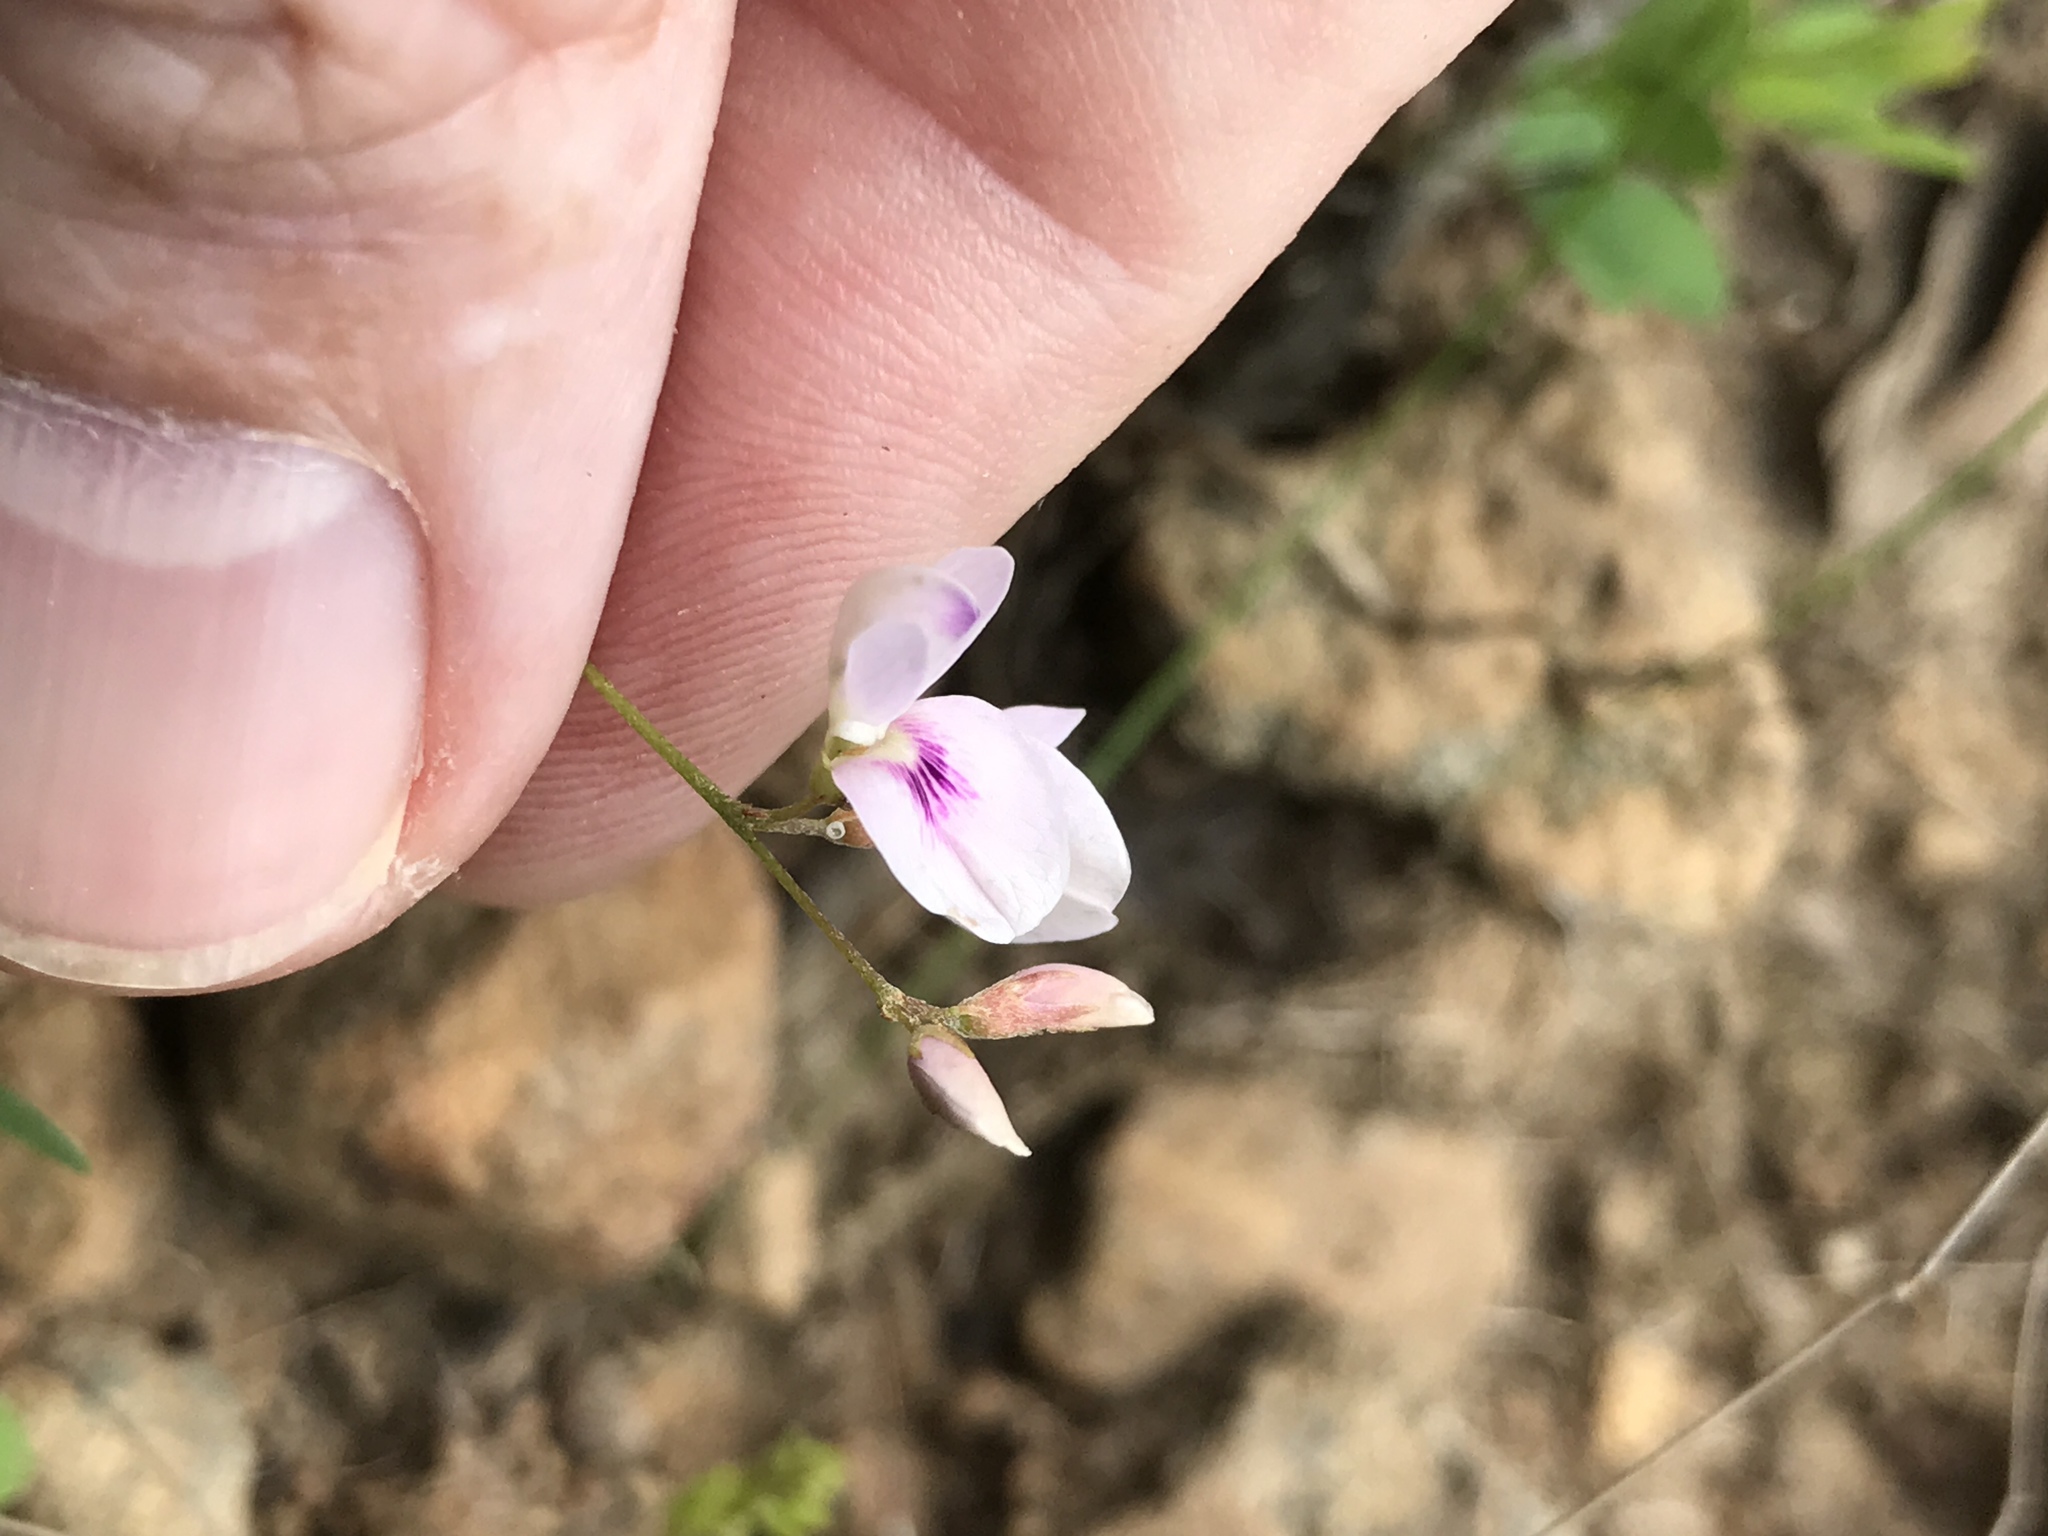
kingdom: Plantae
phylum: Tracheophyta
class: Magnoliopsida
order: Fabales
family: Fabaceae
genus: Lespedeza
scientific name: Lespedeza repens
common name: Creeping bush-clover
